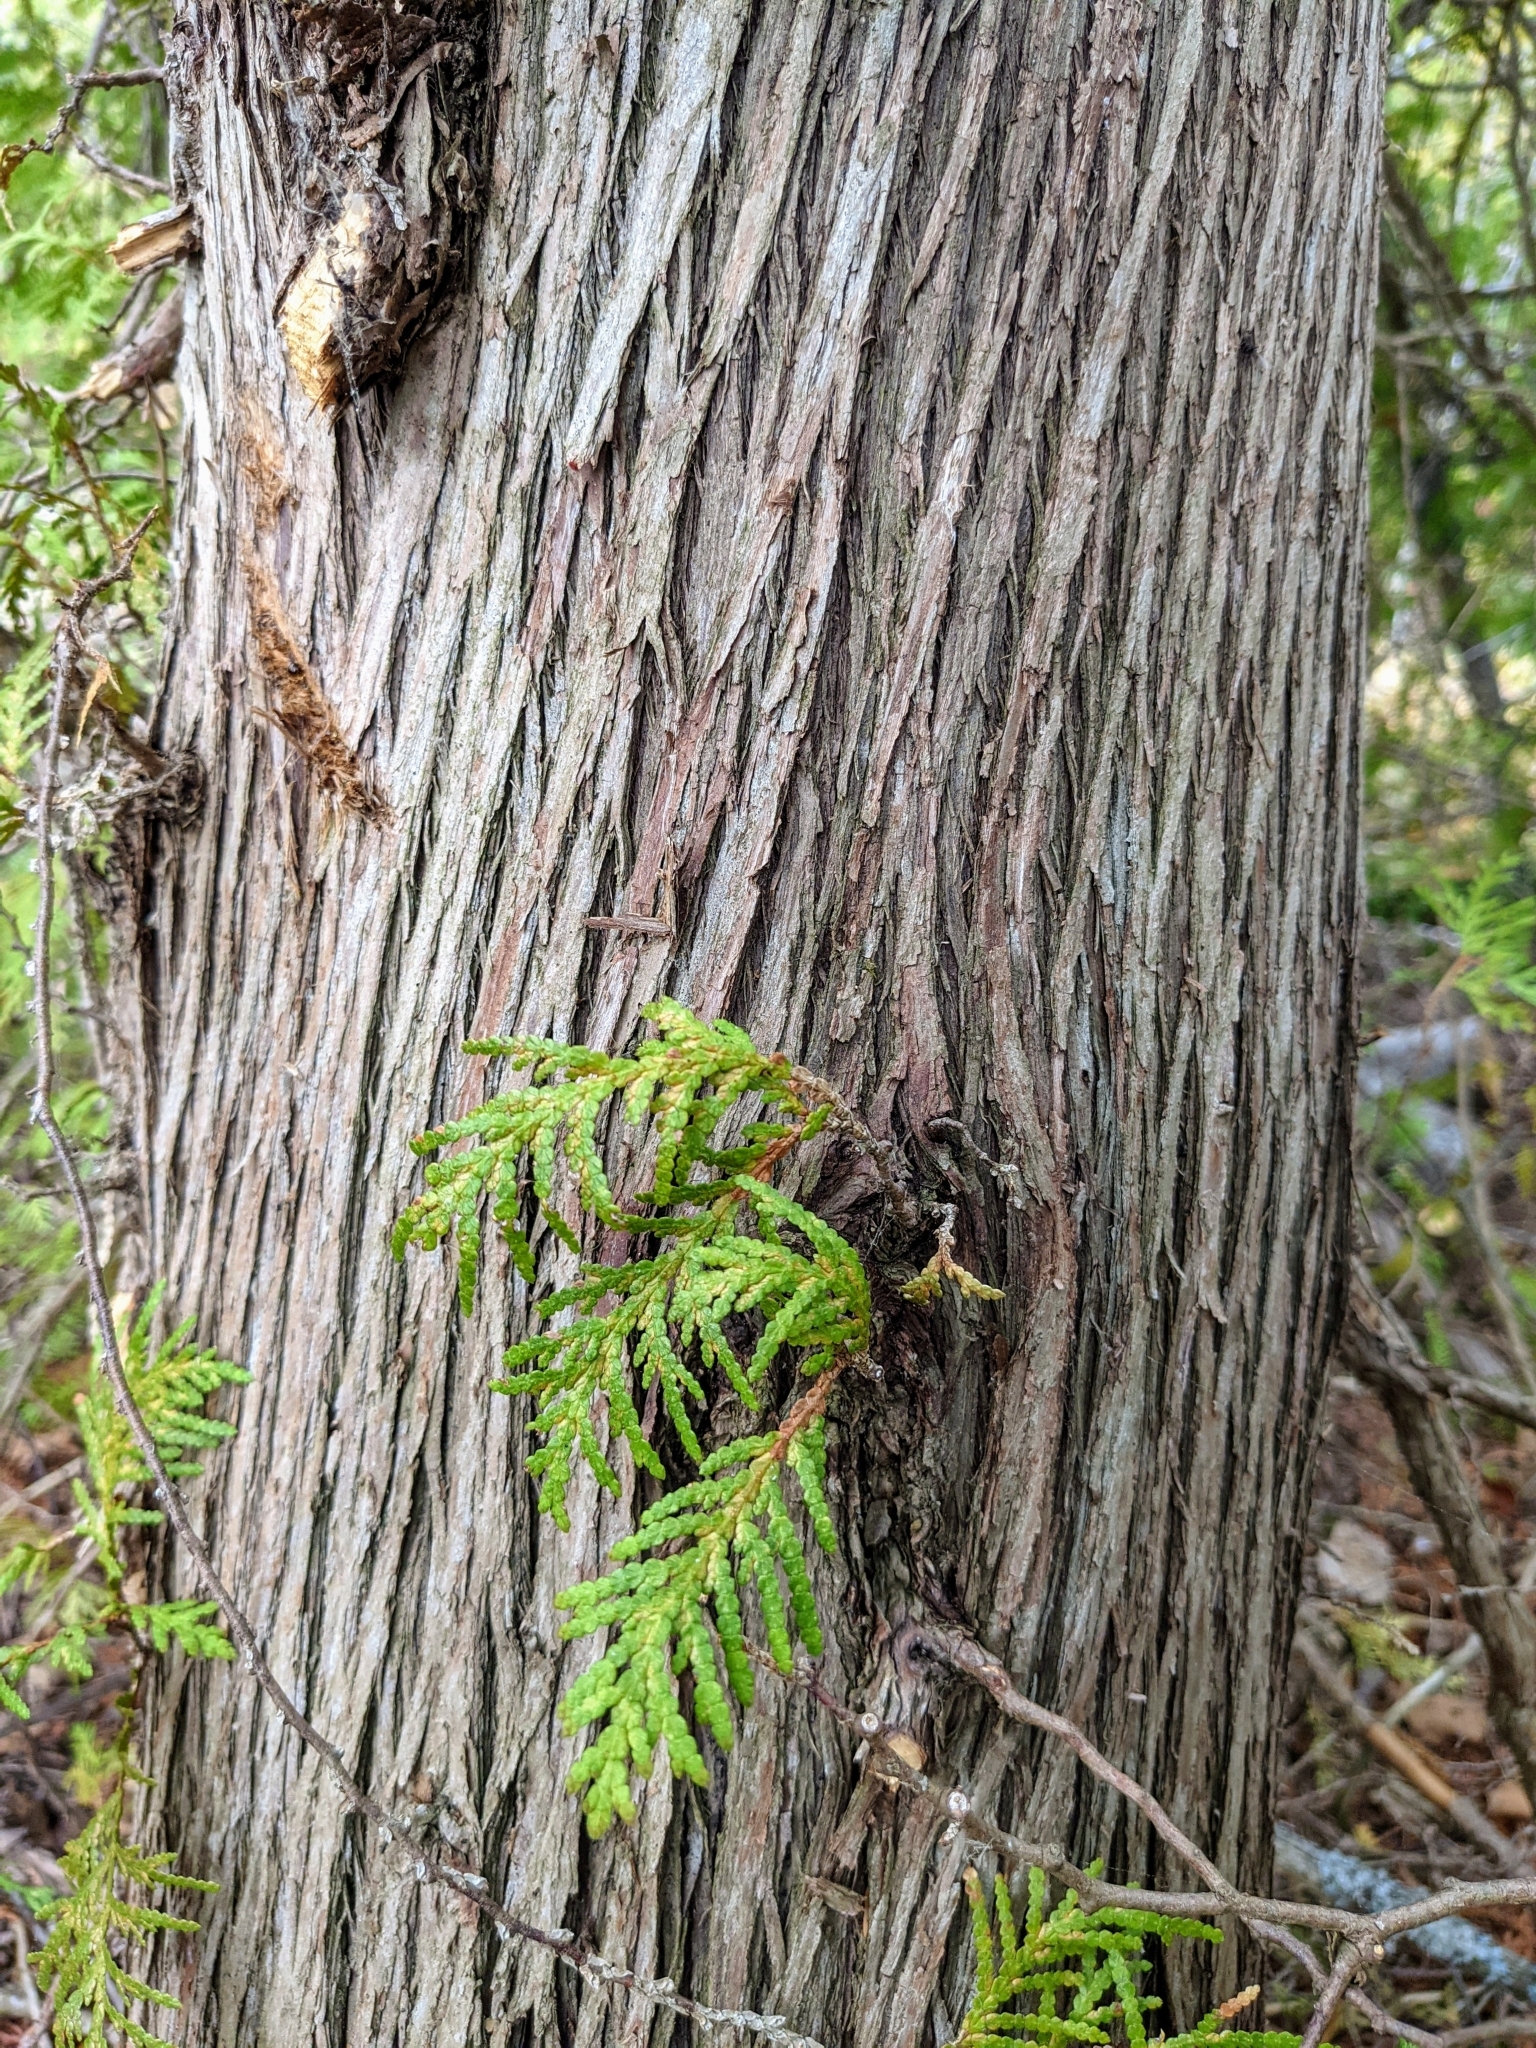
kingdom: Plantae
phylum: Tracheophyta
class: Pinopsida
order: Pinales
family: Cupressaceae
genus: Thuja
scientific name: Thuja occidentalis
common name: Northern white-cedar
